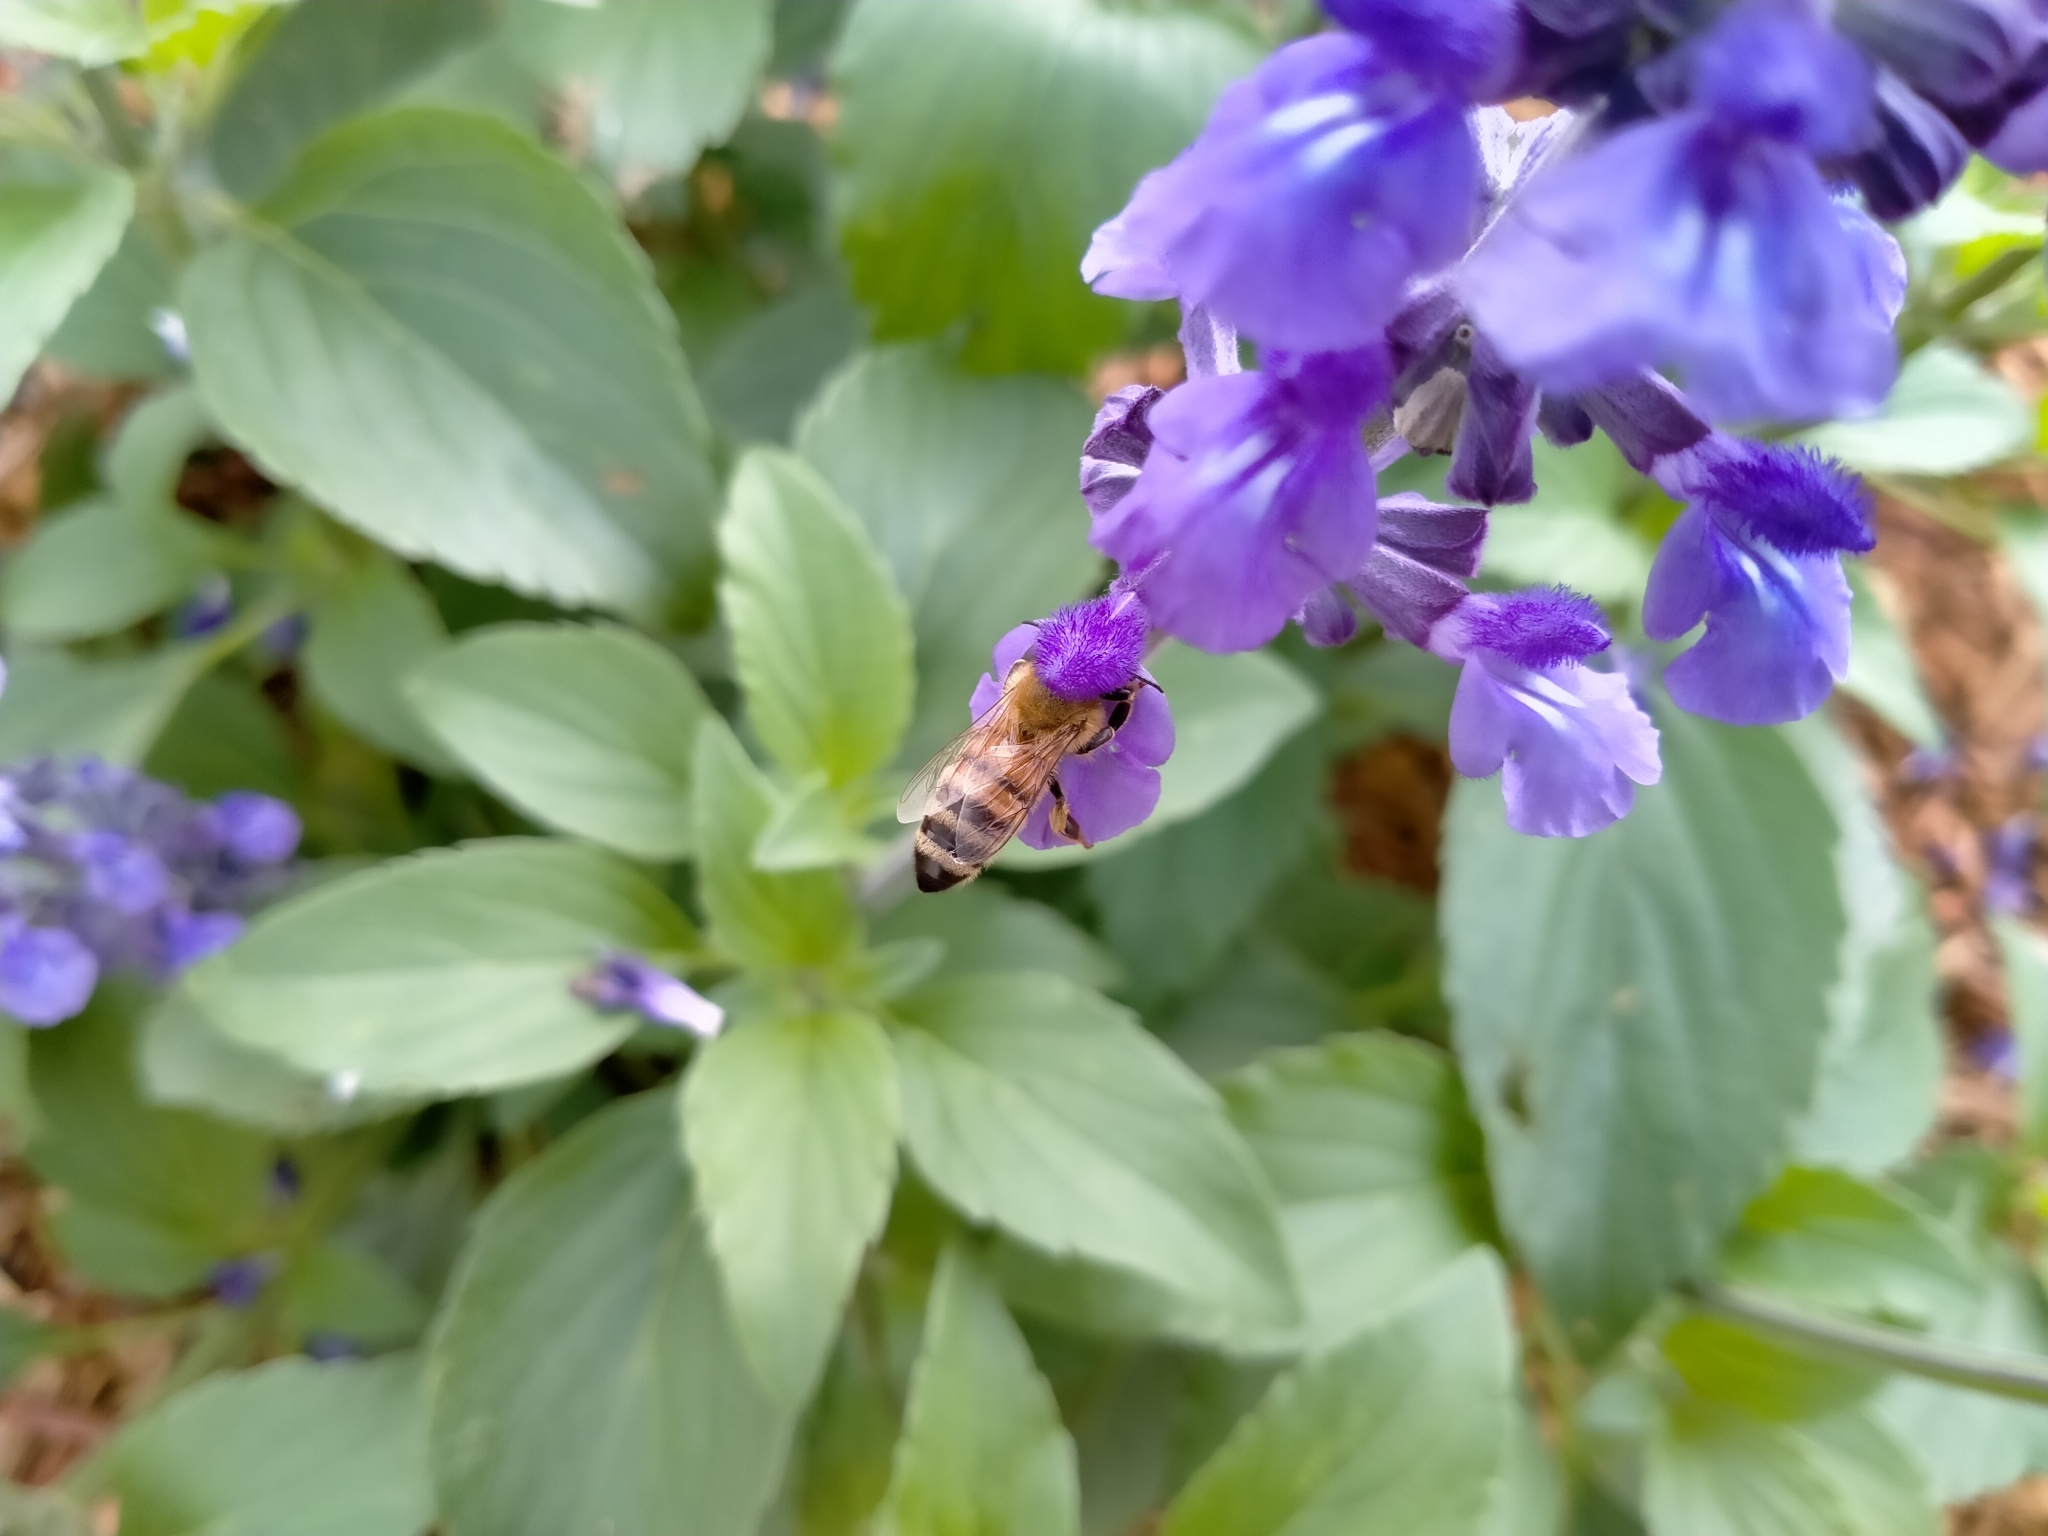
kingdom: Animalia
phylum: Arthropoda
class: Insecta
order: Hymenoptera
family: Apidae
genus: Apis
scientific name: Apis mellifera
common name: Honey bee
